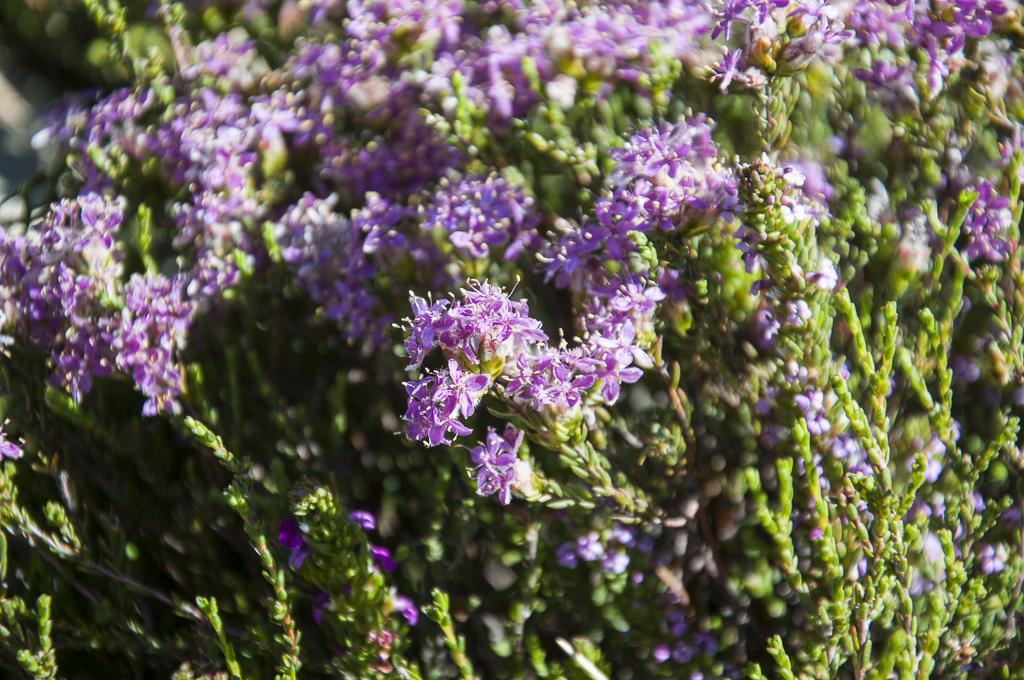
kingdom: Plantae
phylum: Tracheophyta
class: Magnoliopsida
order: Malvales
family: Thymelaeaceae
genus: Lachnaea
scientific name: Lachnaea montana
